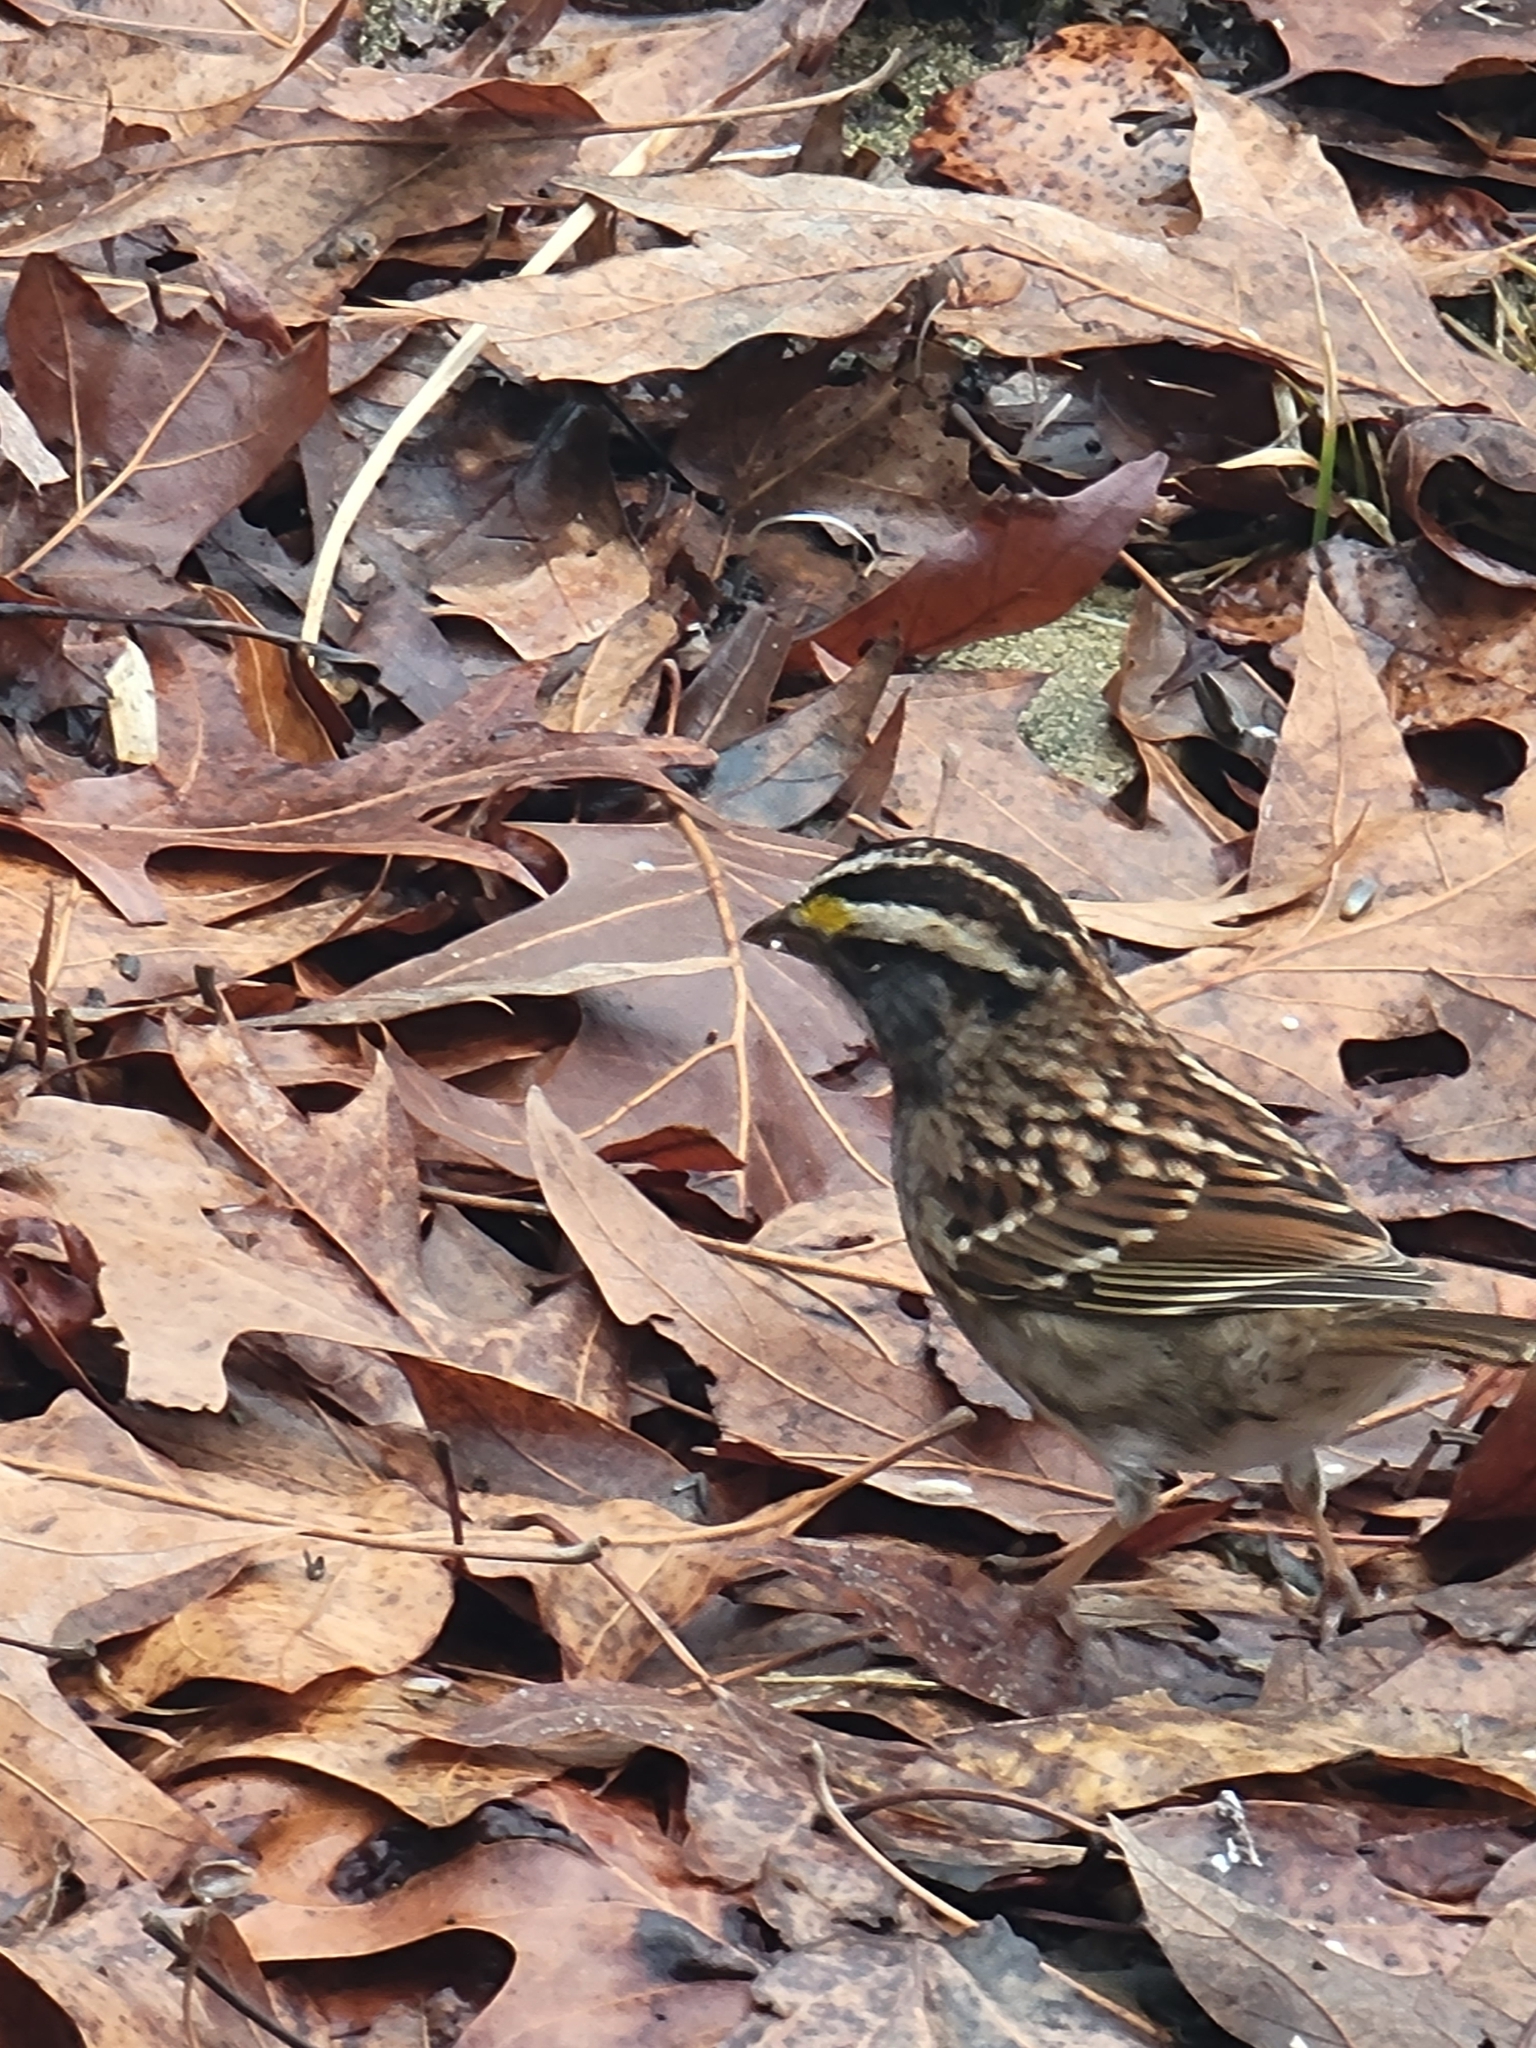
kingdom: Animalia
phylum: Chordata
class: Aves
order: Passeriformes
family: Passerellidae
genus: Zonotrichia
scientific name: Zonotrichia albicollis
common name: White-throated sparrow
